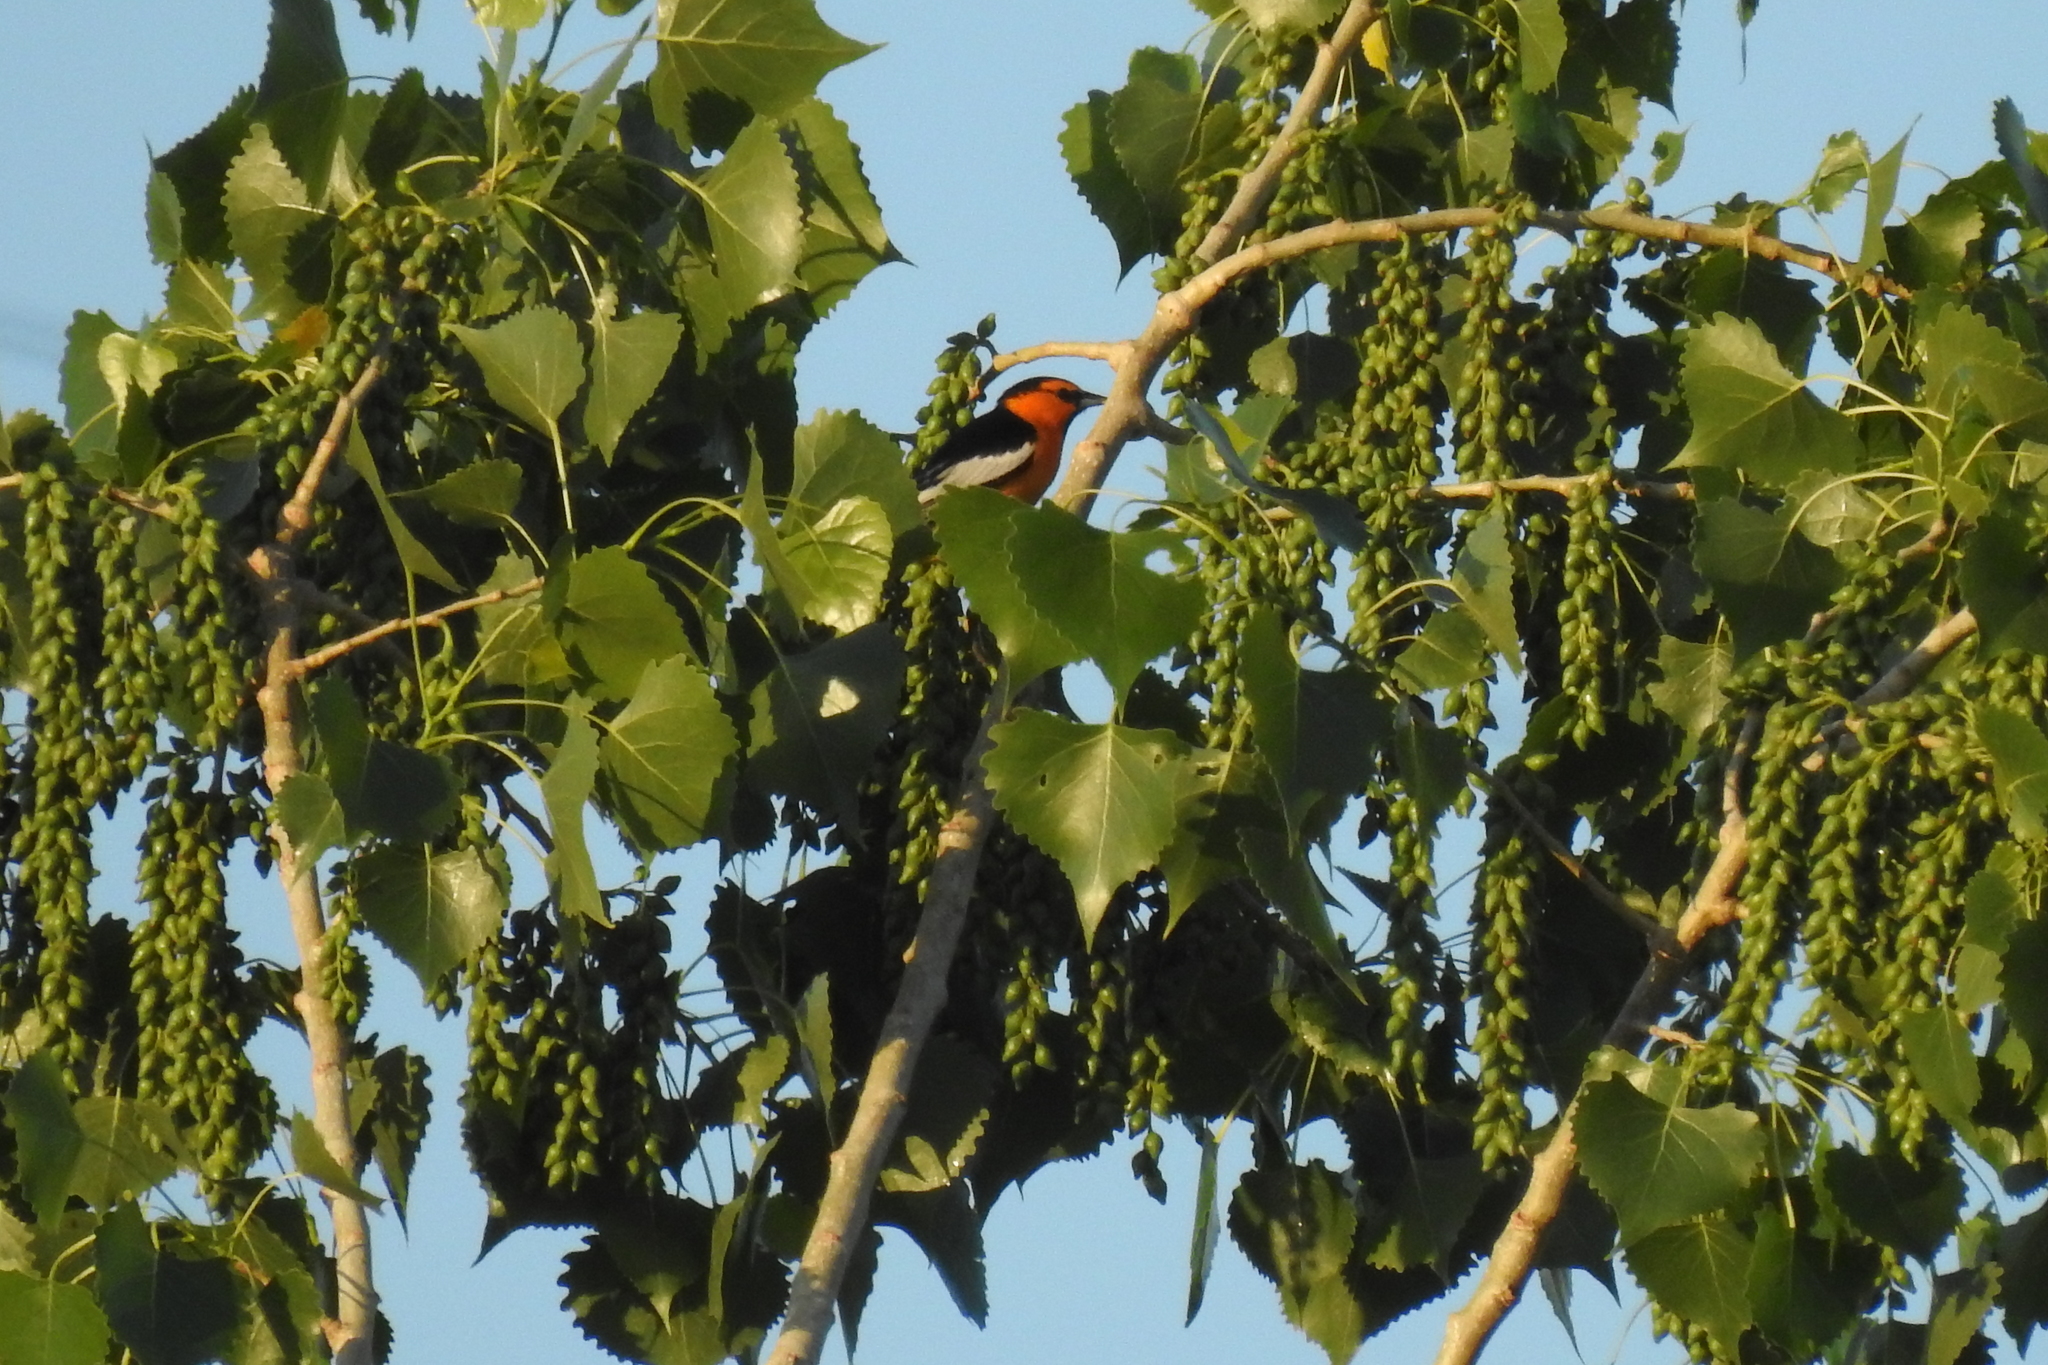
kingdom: Animalia
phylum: Chordata
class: Aves
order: Passeriformes
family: Icteridae
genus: Icterus
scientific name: Icterus bullockii
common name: Bullock's oriole
